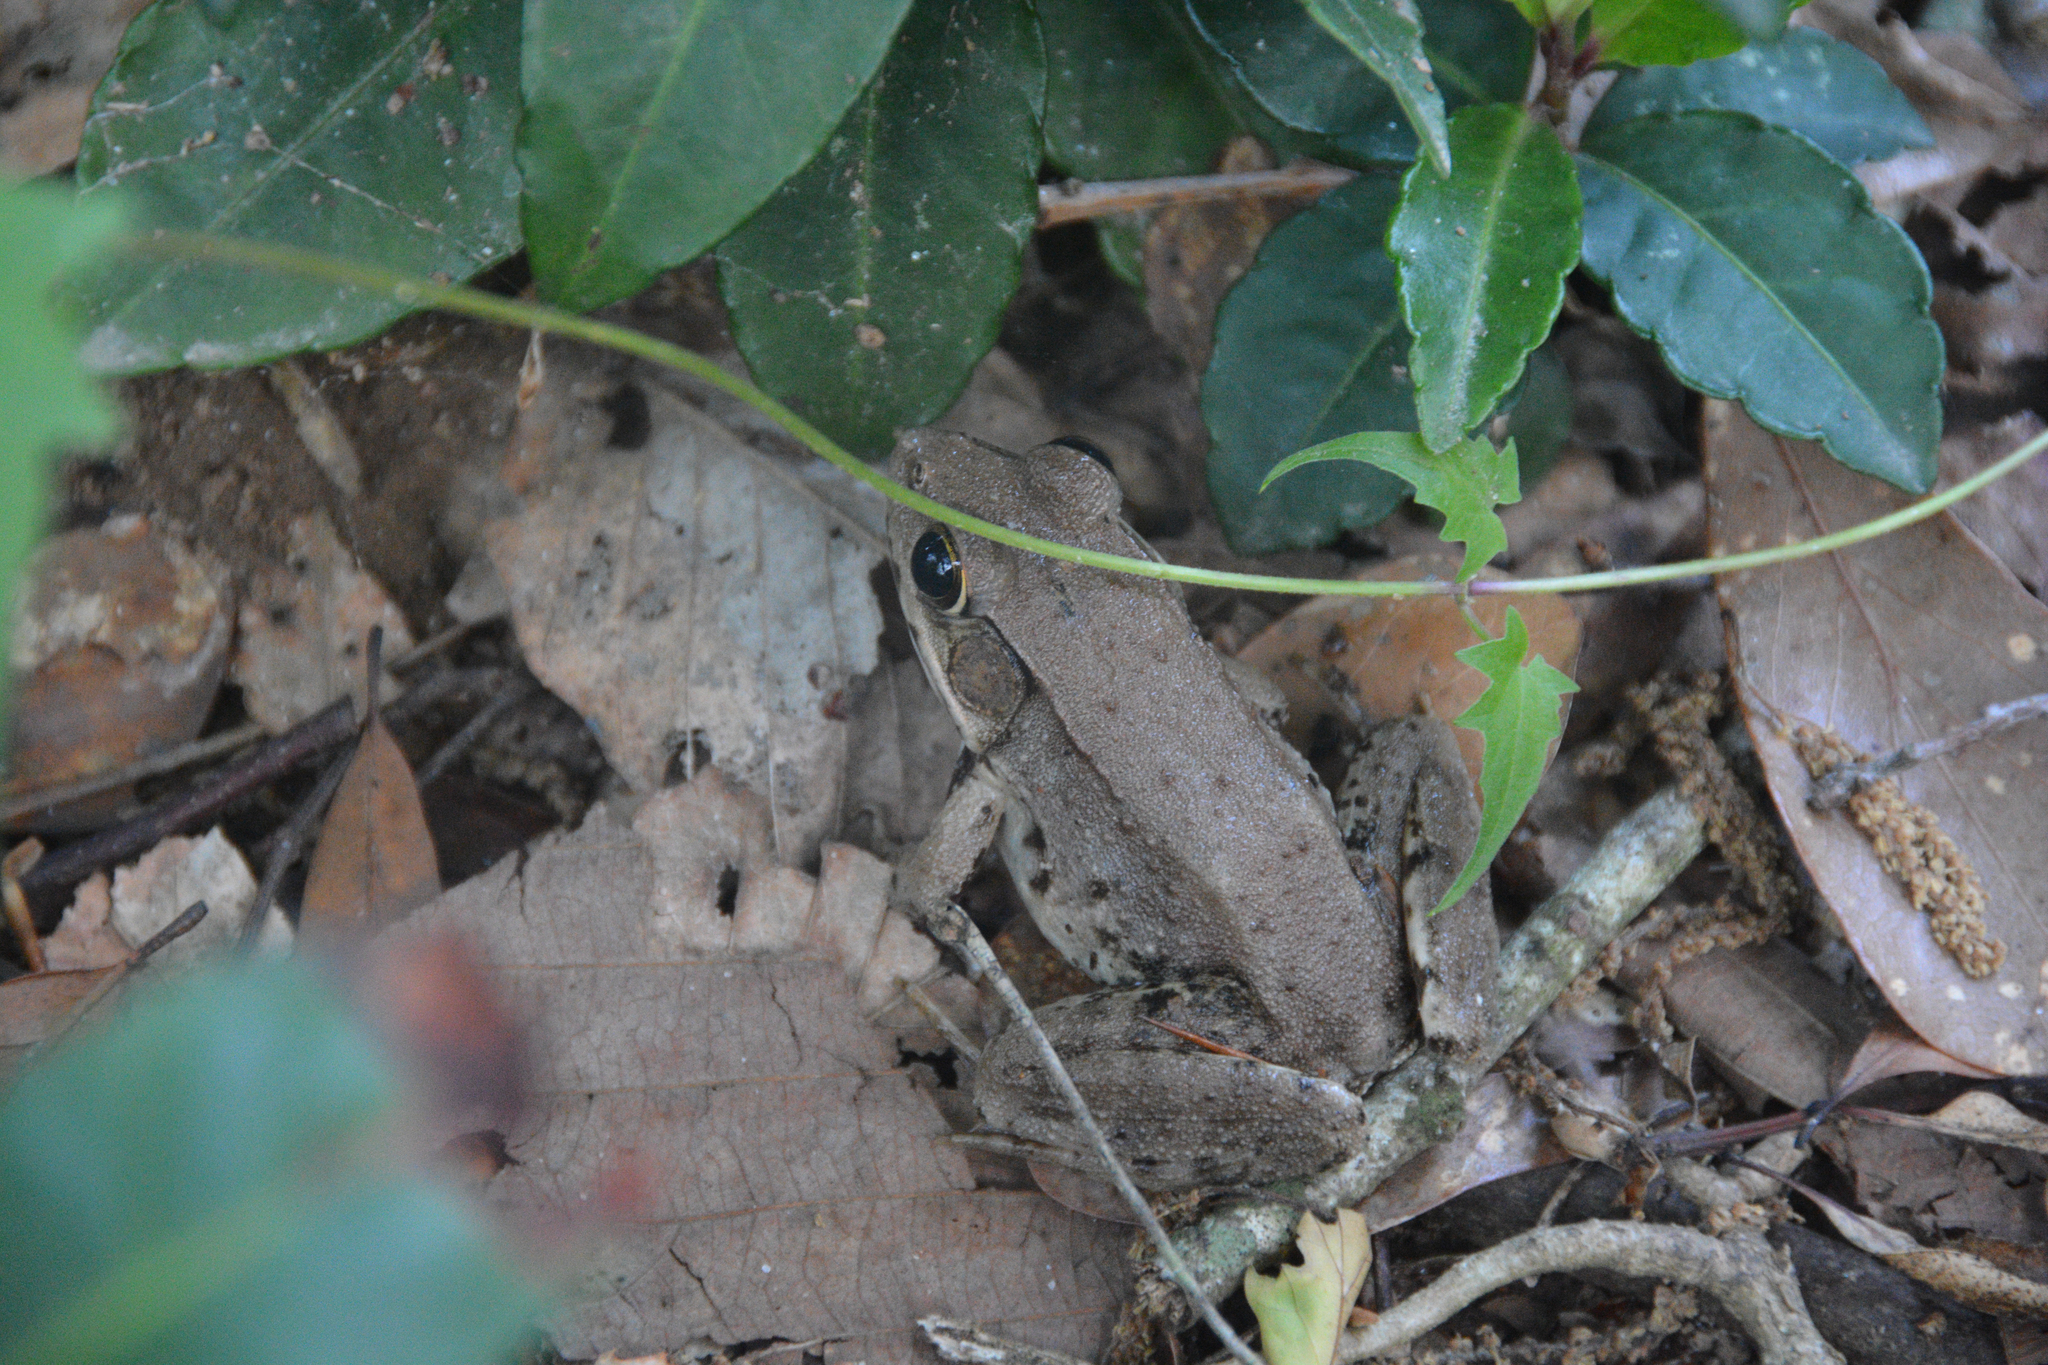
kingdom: Animalia
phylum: Chordata
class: Amphibia
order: Anura
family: Ranidae
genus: Lithobates
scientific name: Lithobates clamitans
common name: Green frog
